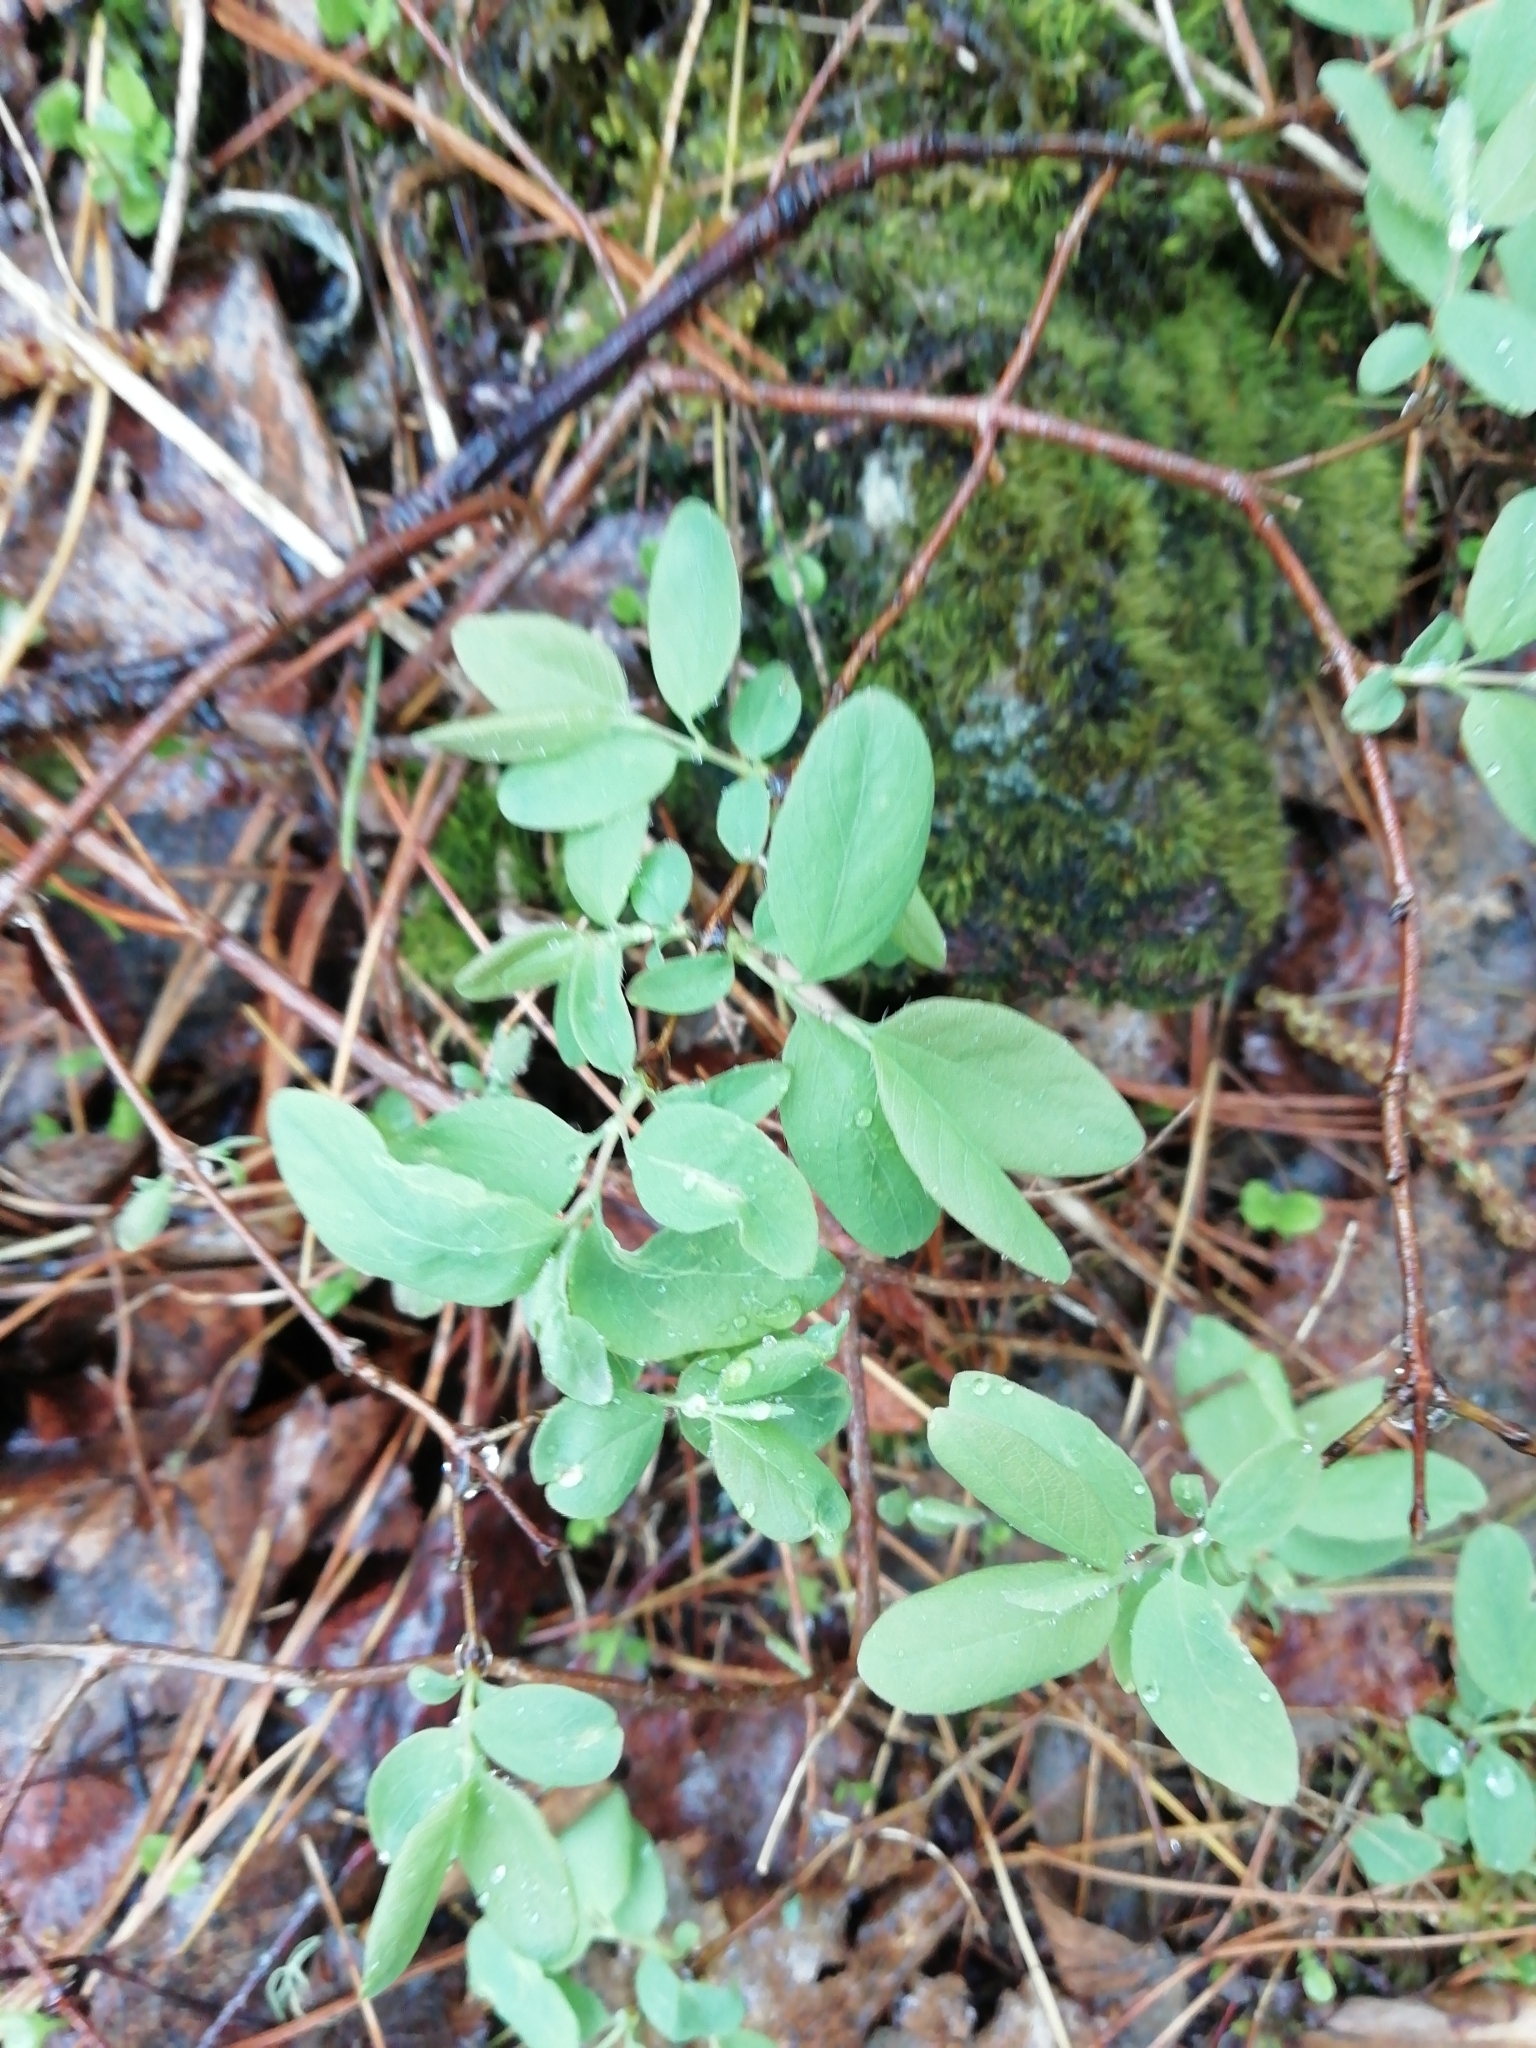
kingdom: Plantae
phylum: Tracheophyta
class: Magnoliopsida
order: Dipsacales
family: Caprifoliaceae
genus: Lonicera
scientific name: Lonicera caerulea
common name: Blue honeysuckle
